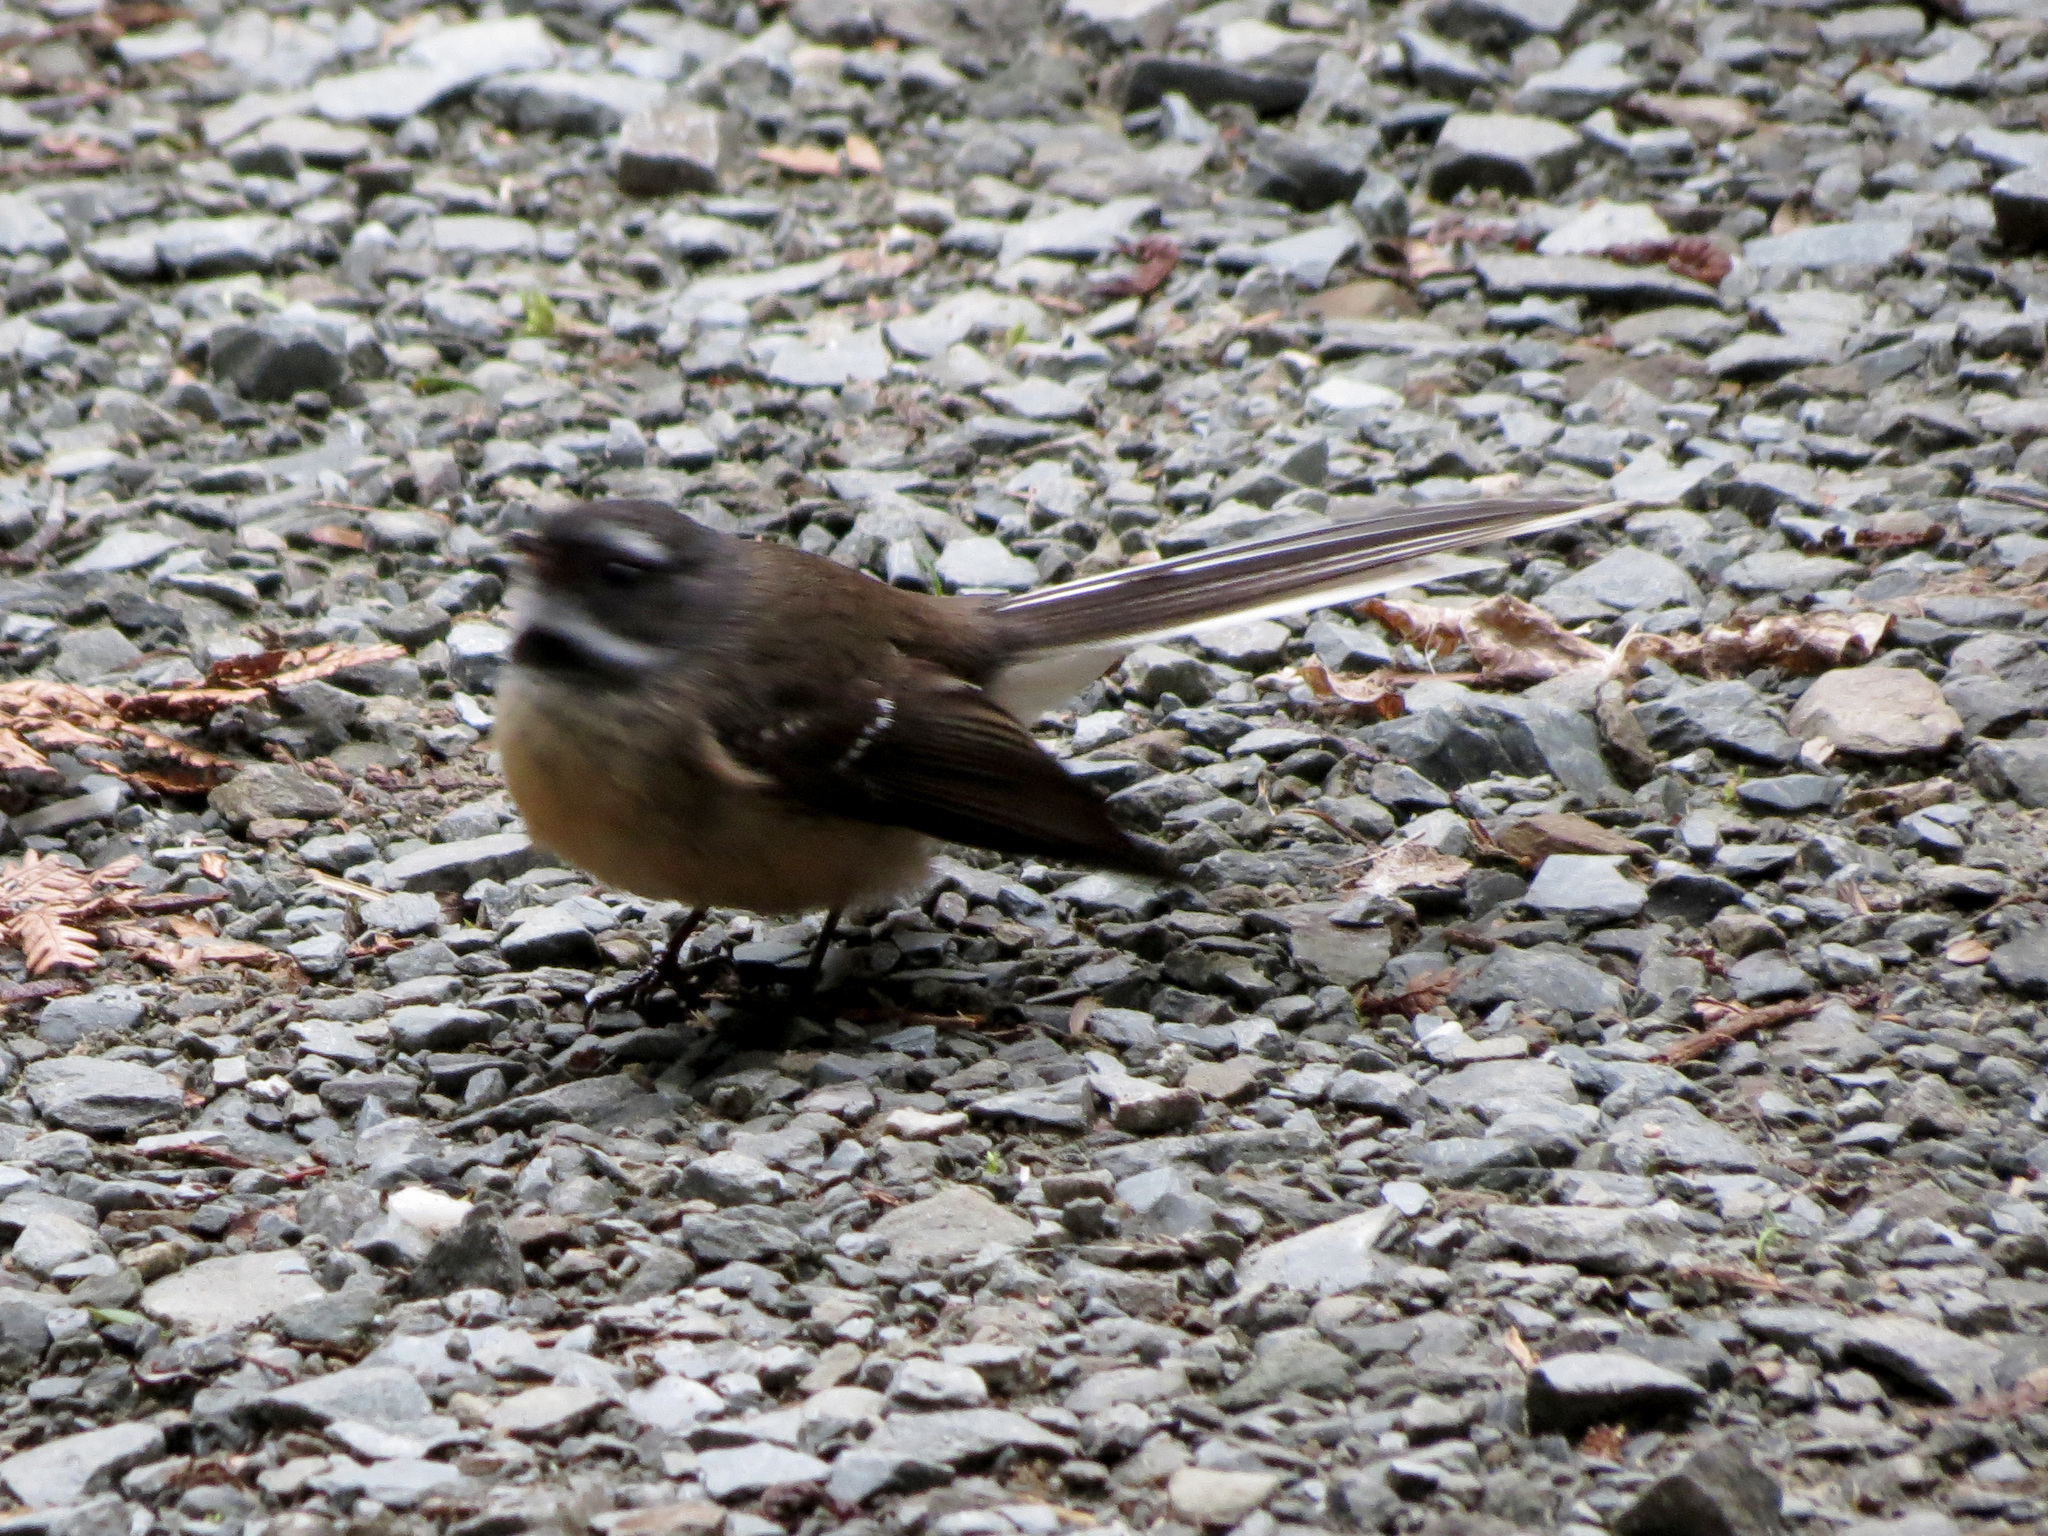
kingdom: Animalia
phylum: Chordata
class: Aves
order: Passeriformes
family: Rhipiduridae
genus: Rhipidura
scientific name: Rhipidura fuliginosa
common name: New zealand fantail
